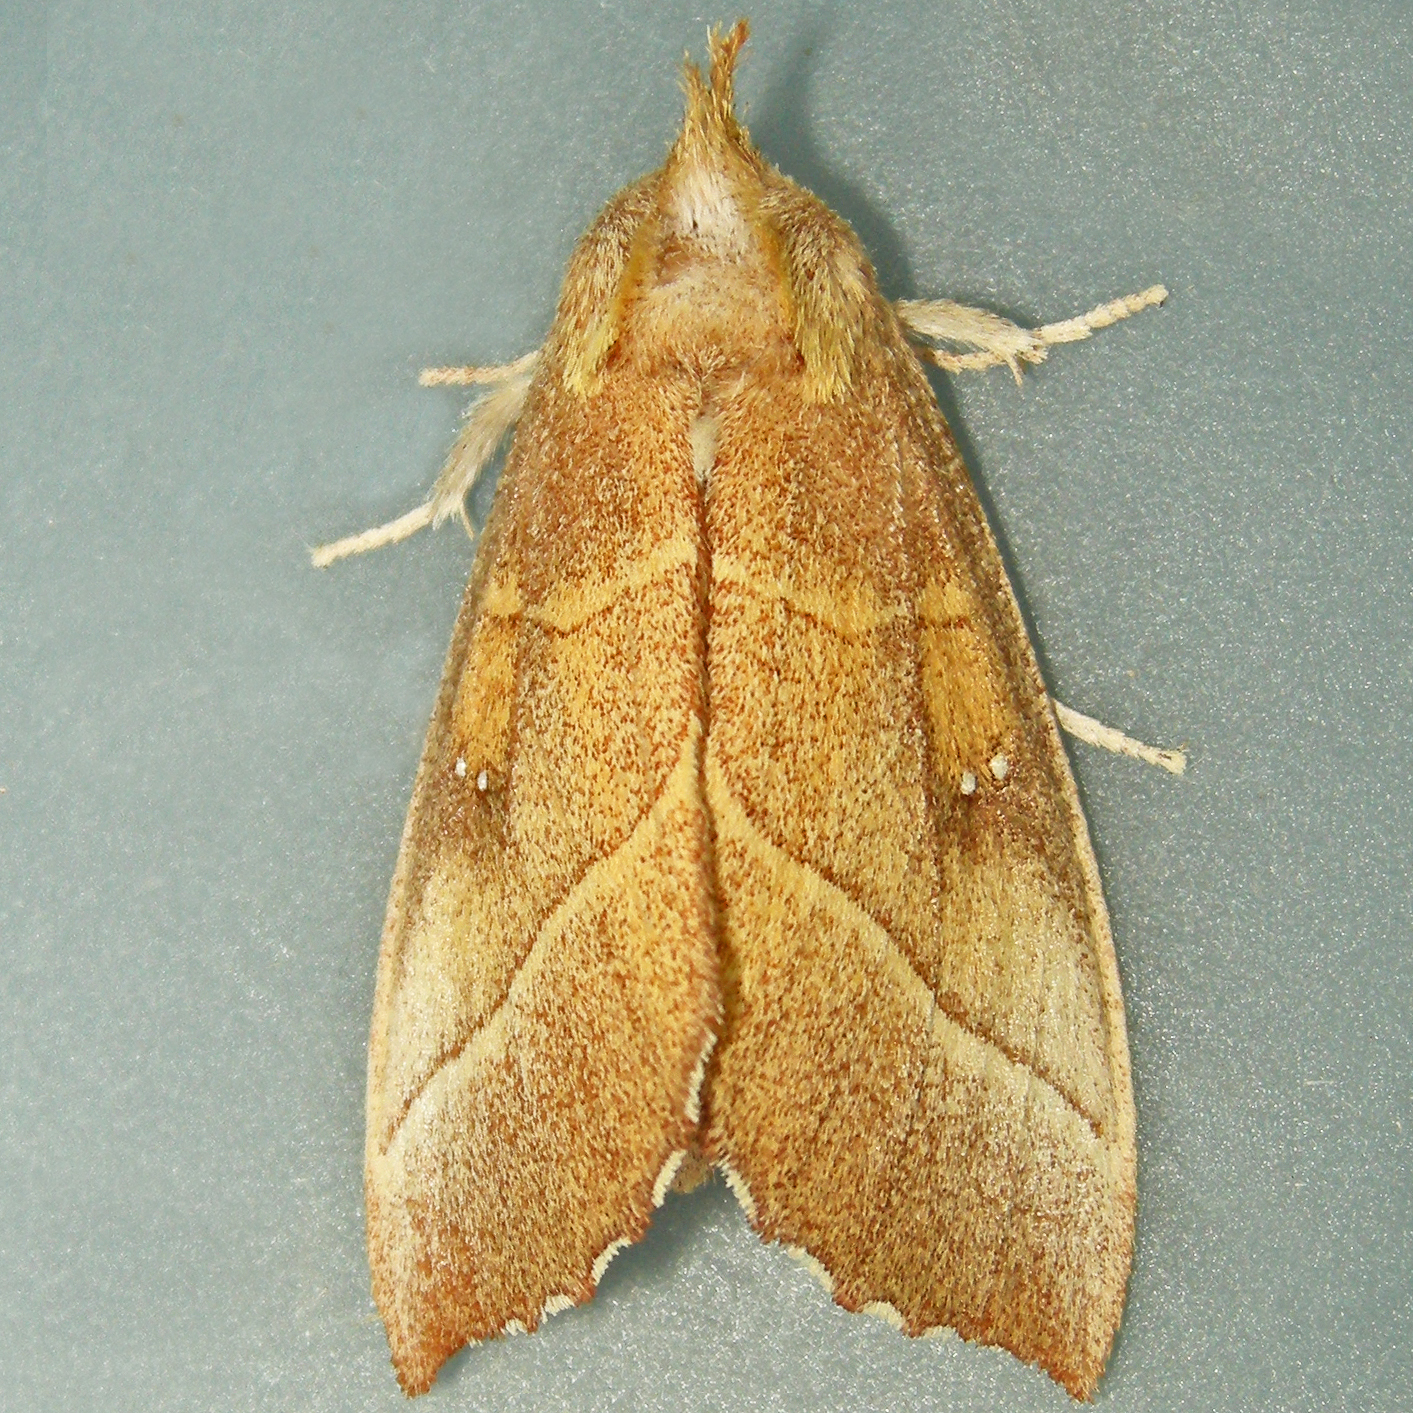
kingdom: Animalia
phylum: Arthropoda
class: Insecta
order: Lepidoptera
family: Notodontidae
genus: Nadata
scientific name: Nadata gibbosa
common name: White-dotted prominent
